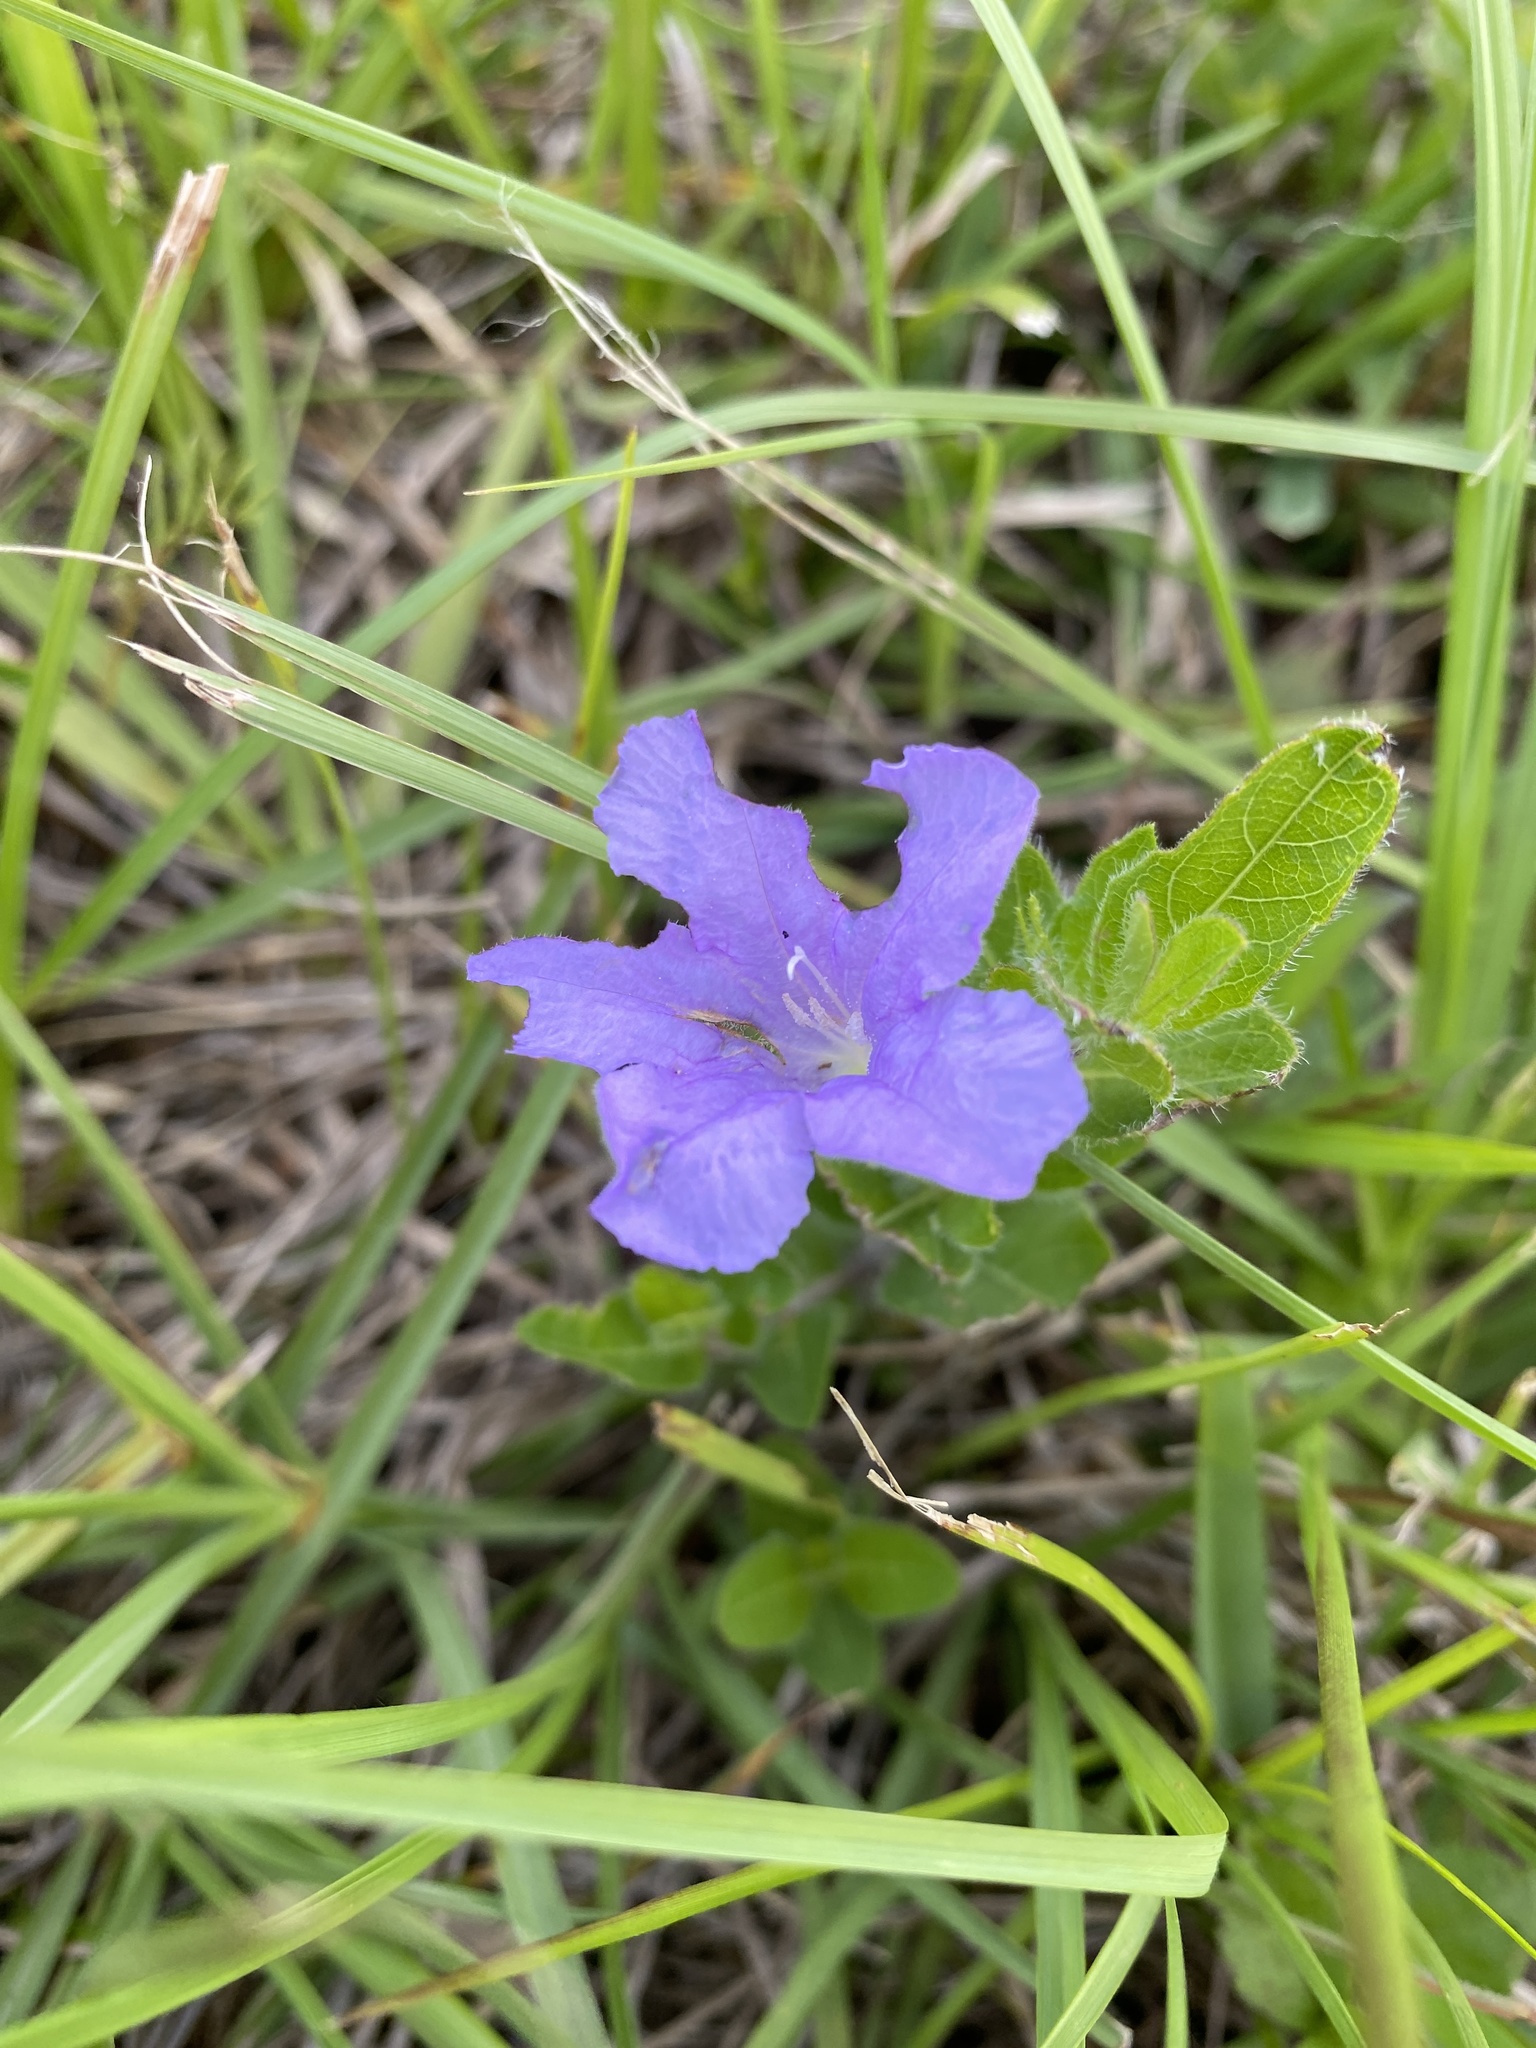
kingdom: Plantae
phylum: Tracheophyta
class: Magnoliopsida
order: Lamiales
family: Acanthaceae
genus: Ruellia
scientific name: Ruellia humilis
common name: Fringe-leaf ruellia
